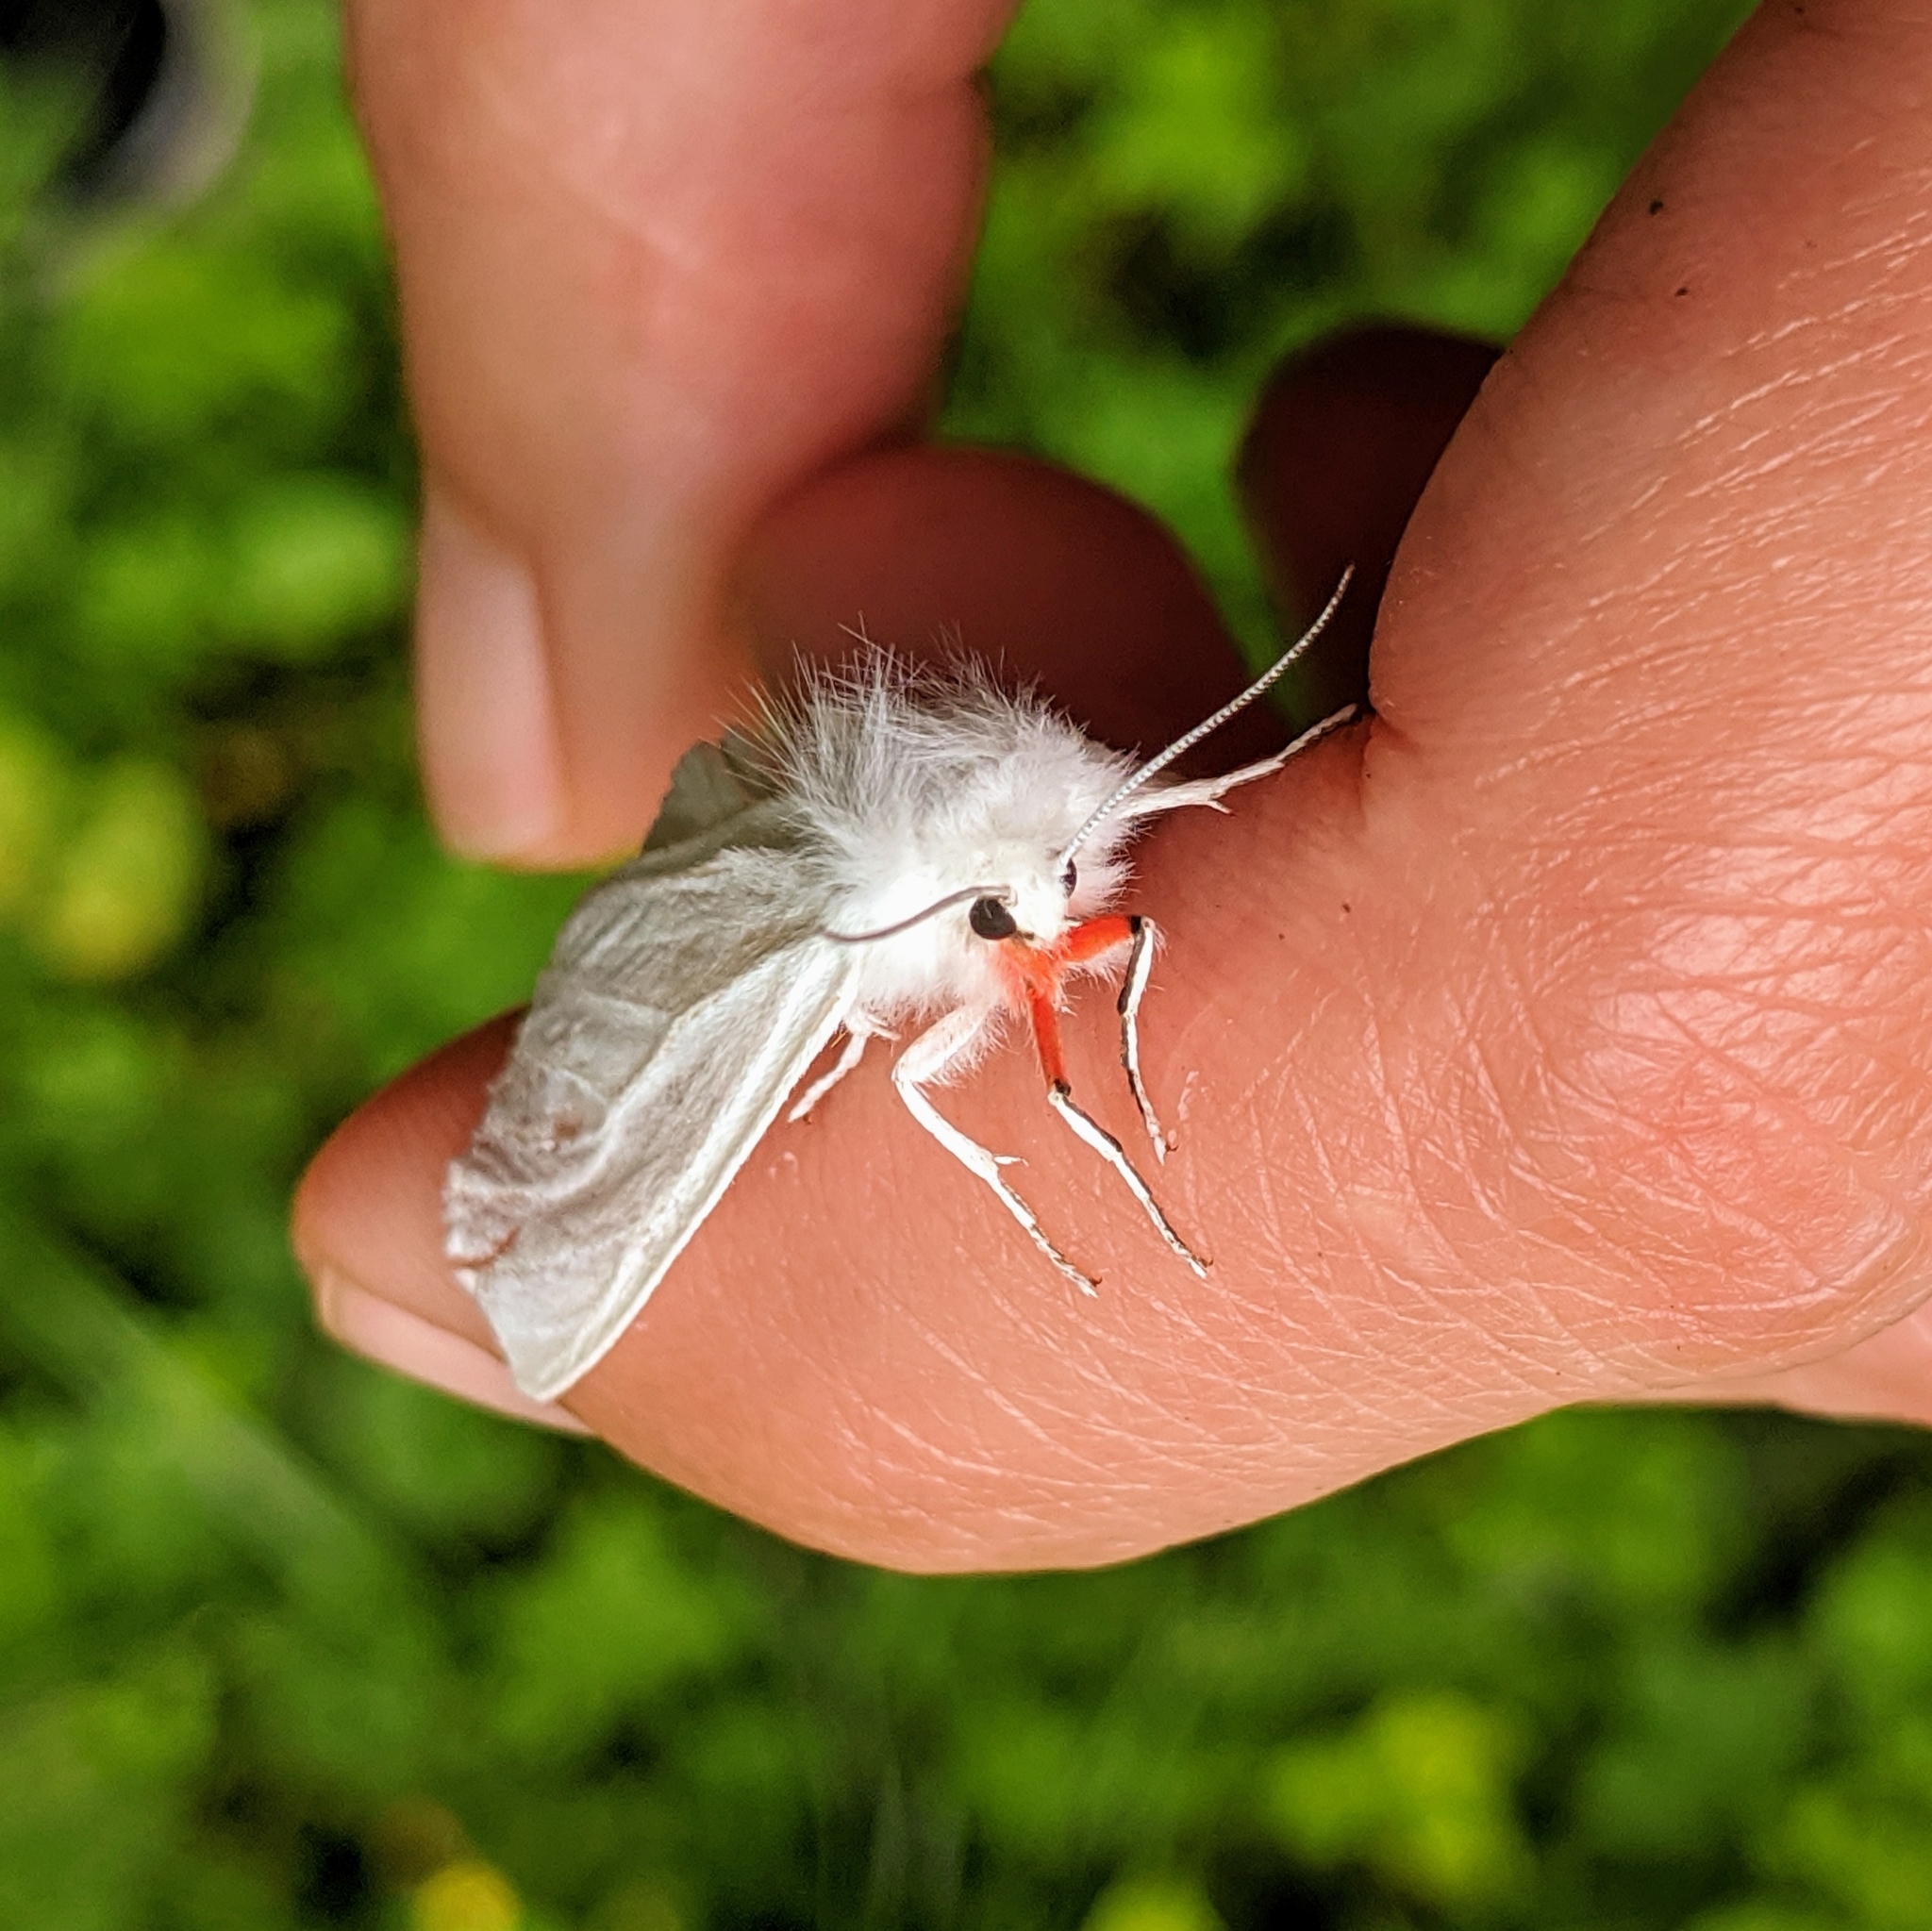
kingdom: Animalia
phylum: Arthropoda
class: Insecta
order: Lepidoptera
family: Erebidae
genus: Spilosoma
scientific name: Spilosoma latipennis
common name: Pink-legged tiger moth
